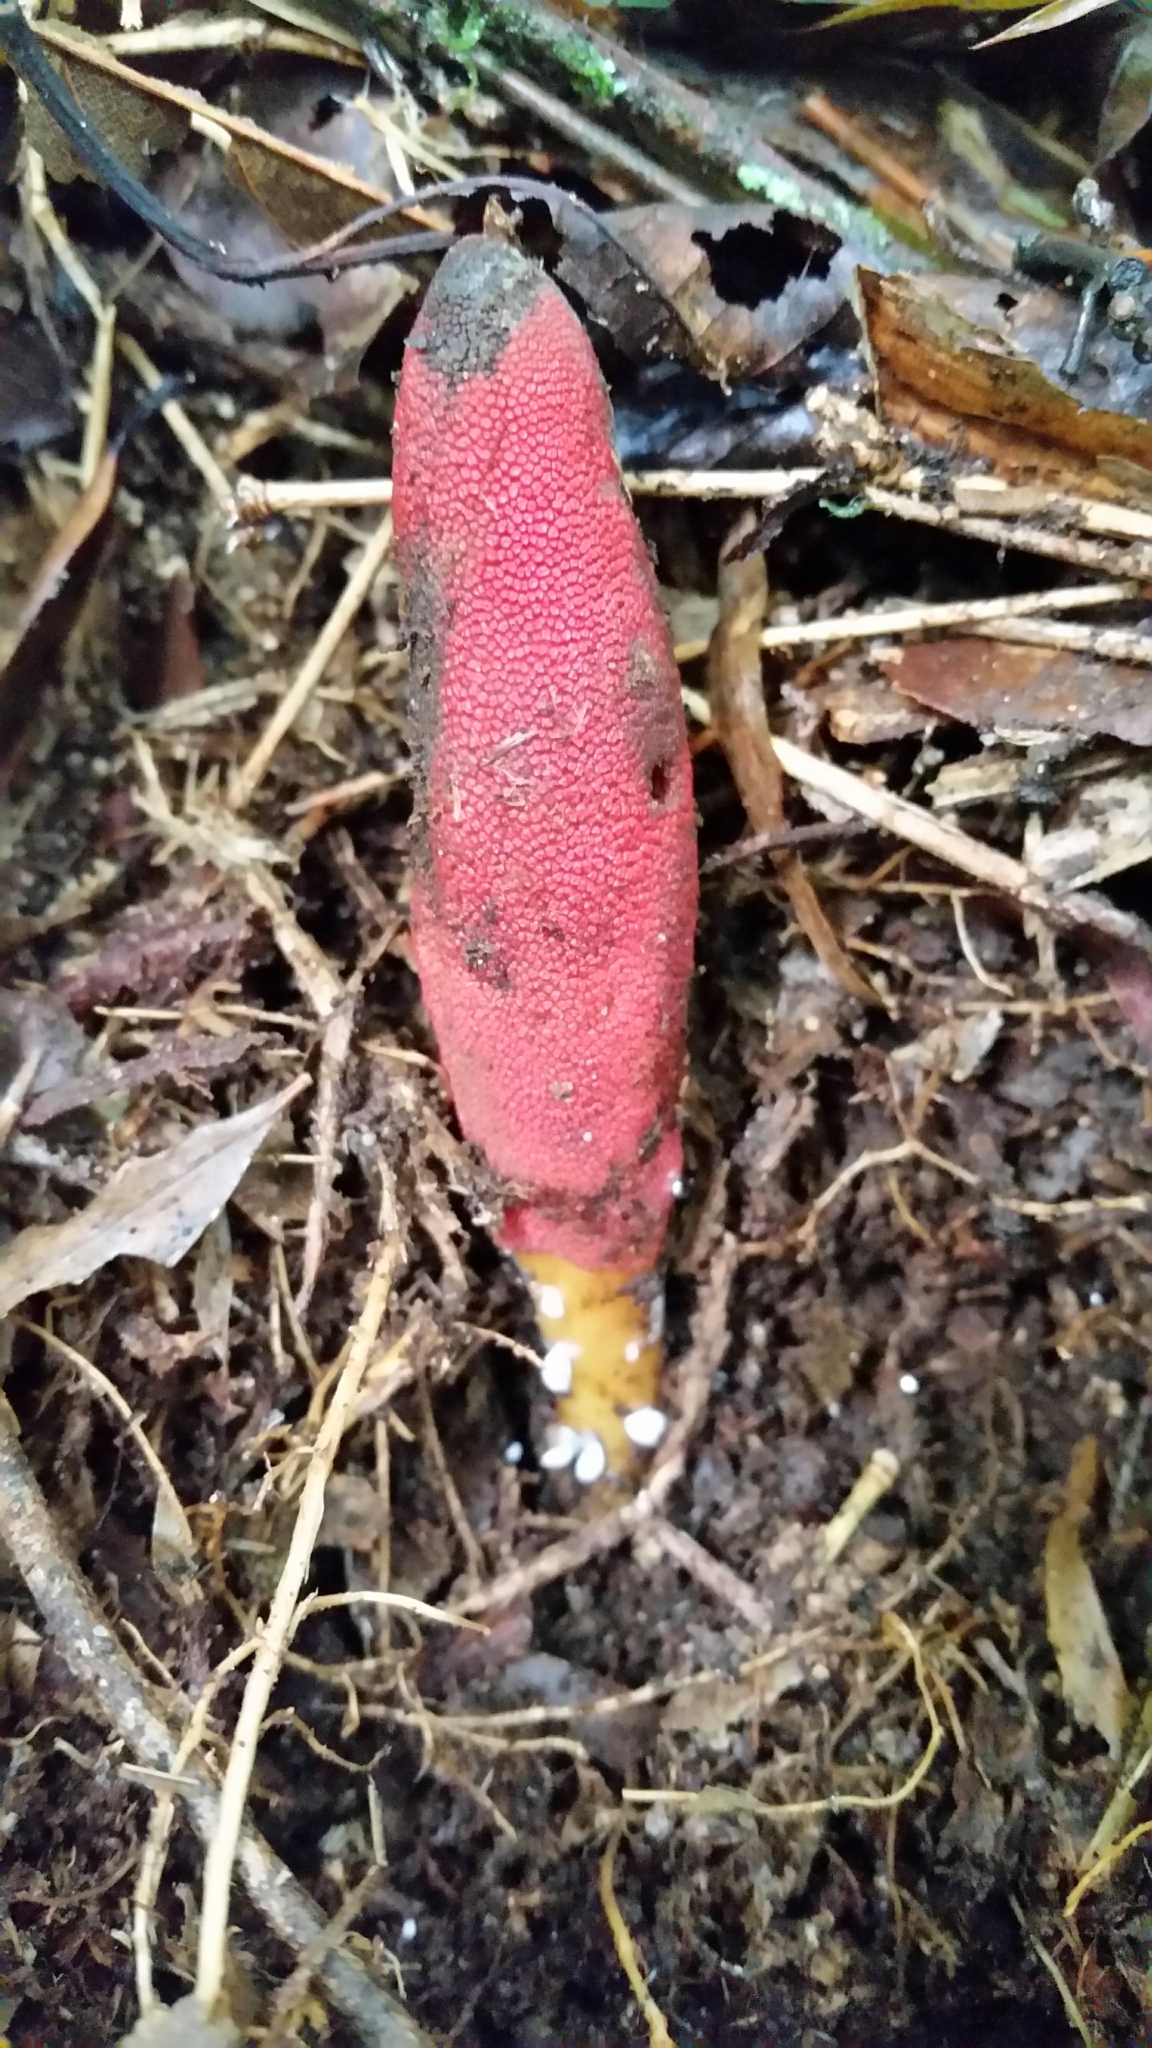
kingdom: Plantae
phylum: Tracheophyta
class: Magnoliopsida
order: Santalales
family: Balanophoraceae
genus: Balanophora
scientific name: Balanophora laxiflora
